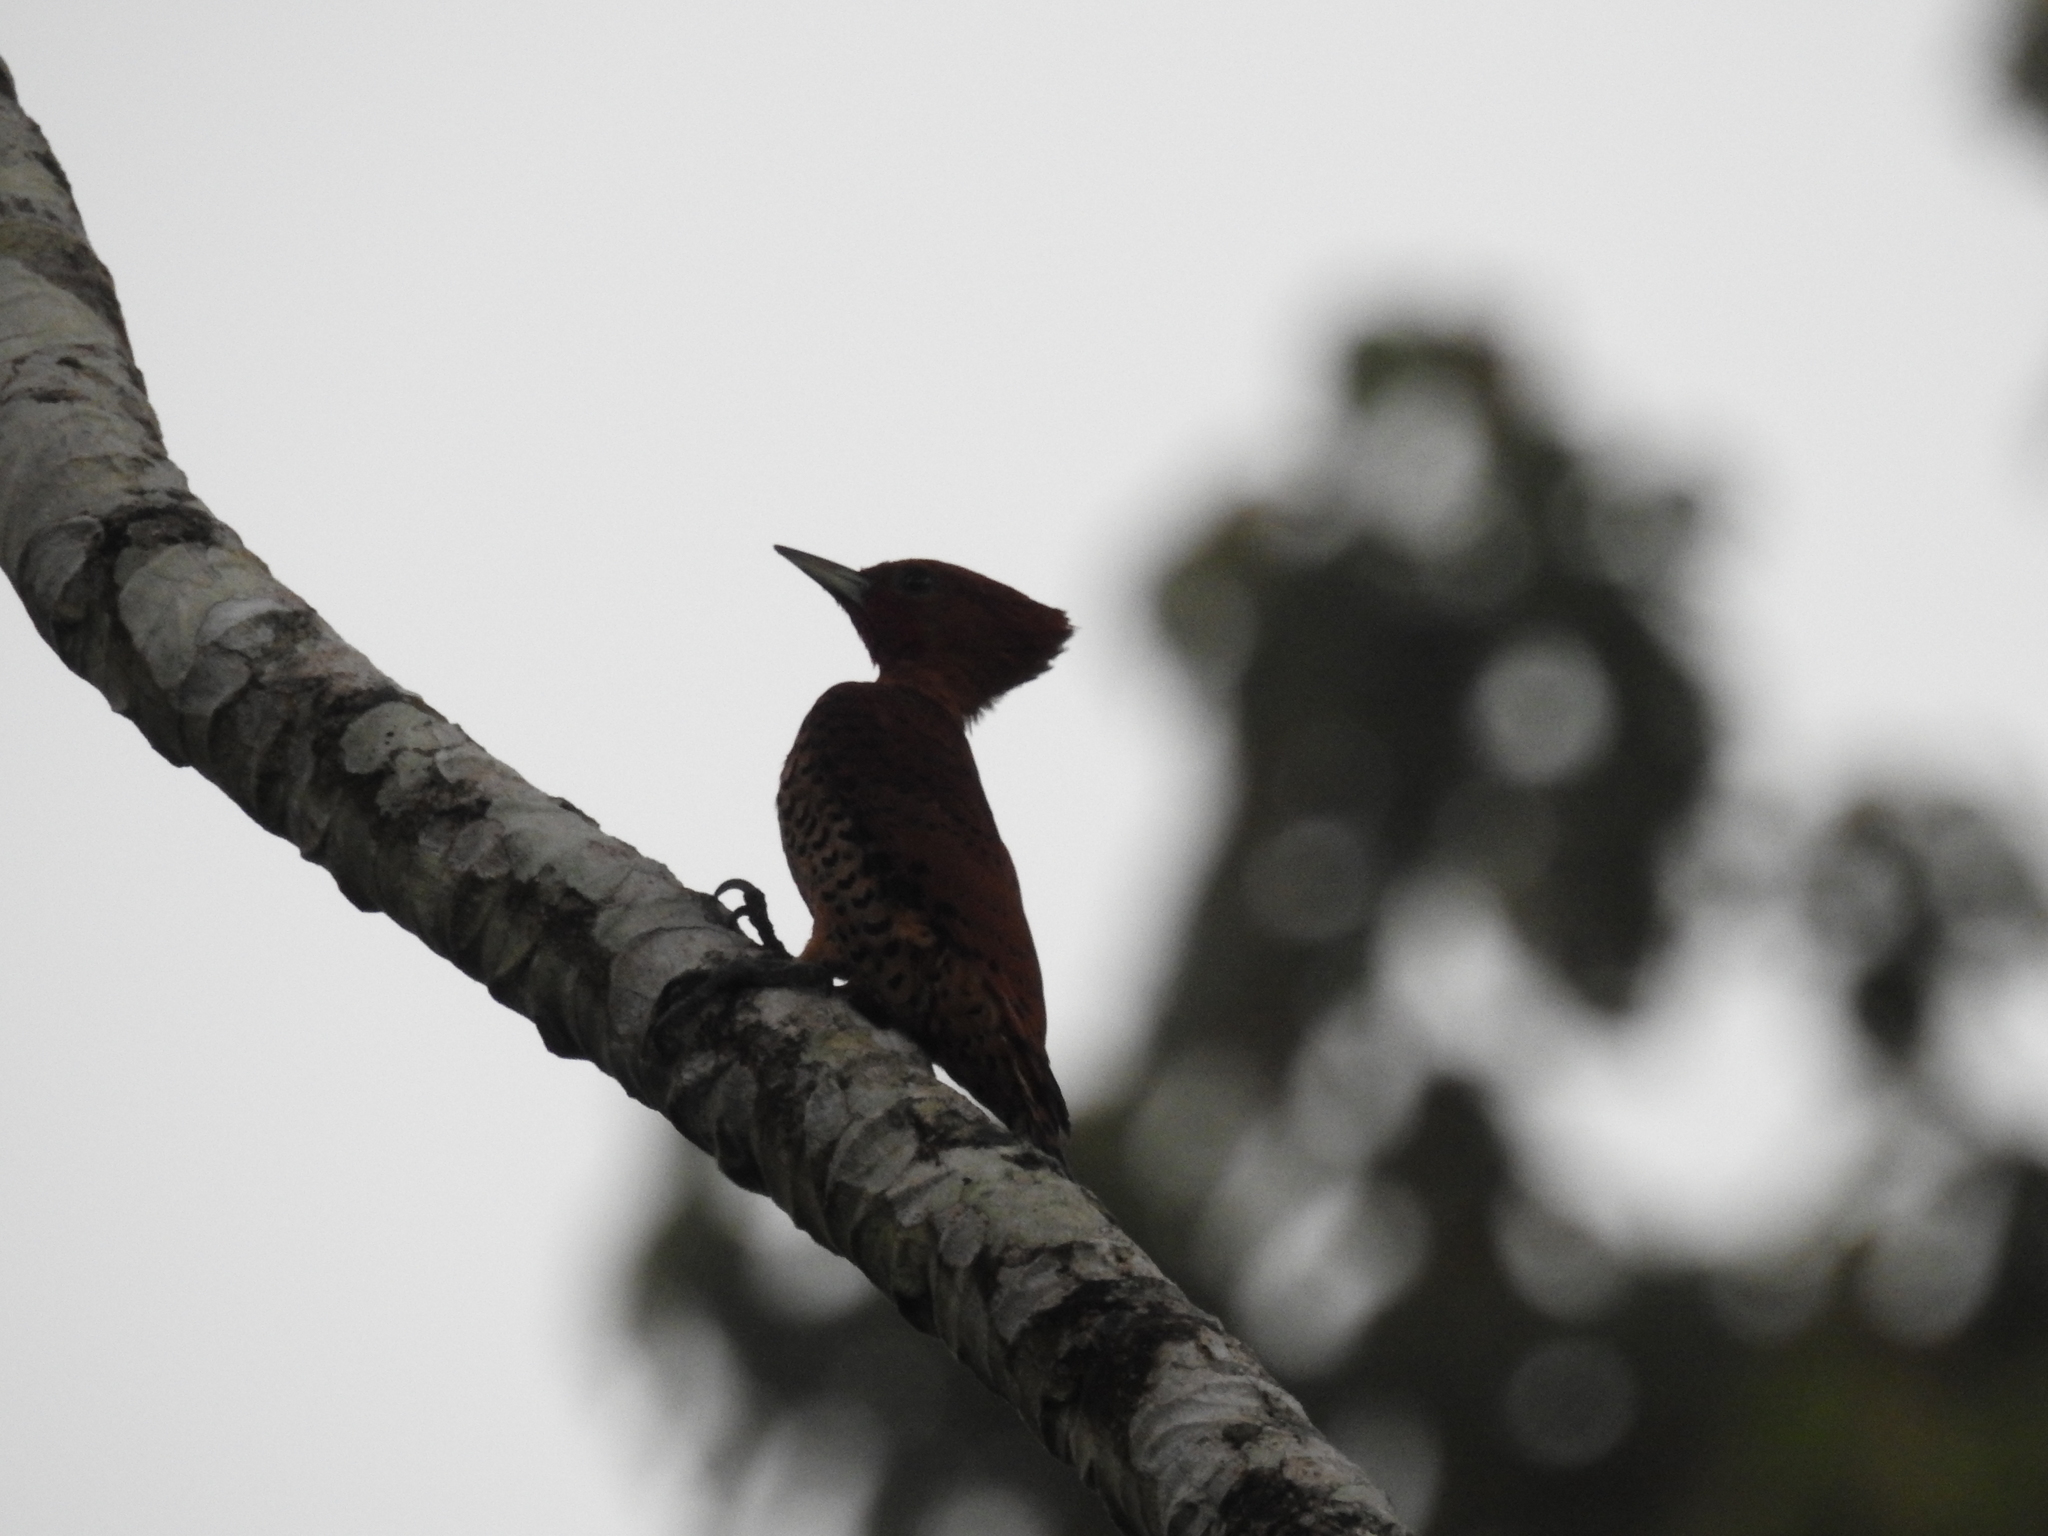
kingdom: Animalia
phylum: Chordata
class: Aves
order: Piciformes
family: Picidae
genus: Celeus
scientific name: Celeus loricatus
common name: Cinnamon woodpecker
